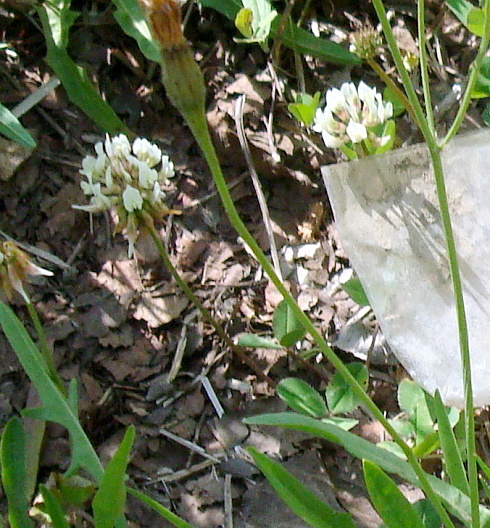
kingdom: Plantae
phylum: Tracheophyta
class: Magnoliopsida
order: Fabales
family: Fabaceae
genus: Trifolium
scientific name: Trifolium repens
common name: White clover
